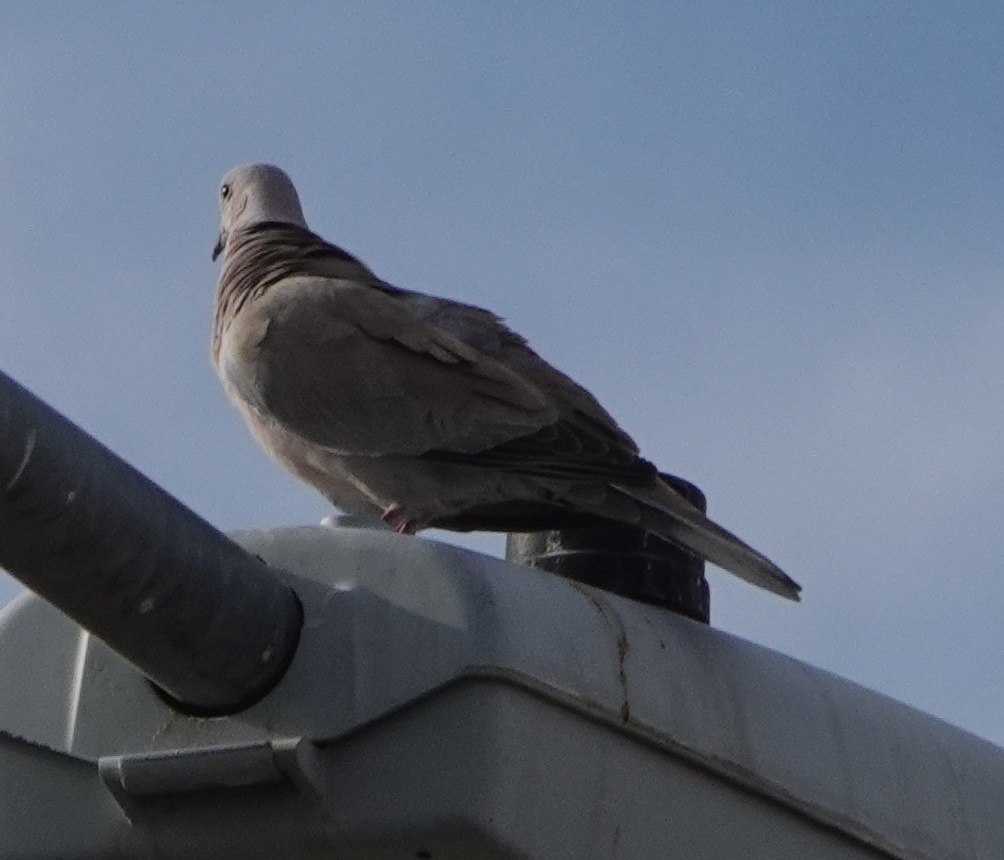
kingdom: Animalia
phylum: Chordata
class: Aves
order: Columbiformes
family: Columbidae
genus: Streptopelia
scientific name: Streptopelia decaocto
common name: Eurasian collared dove
